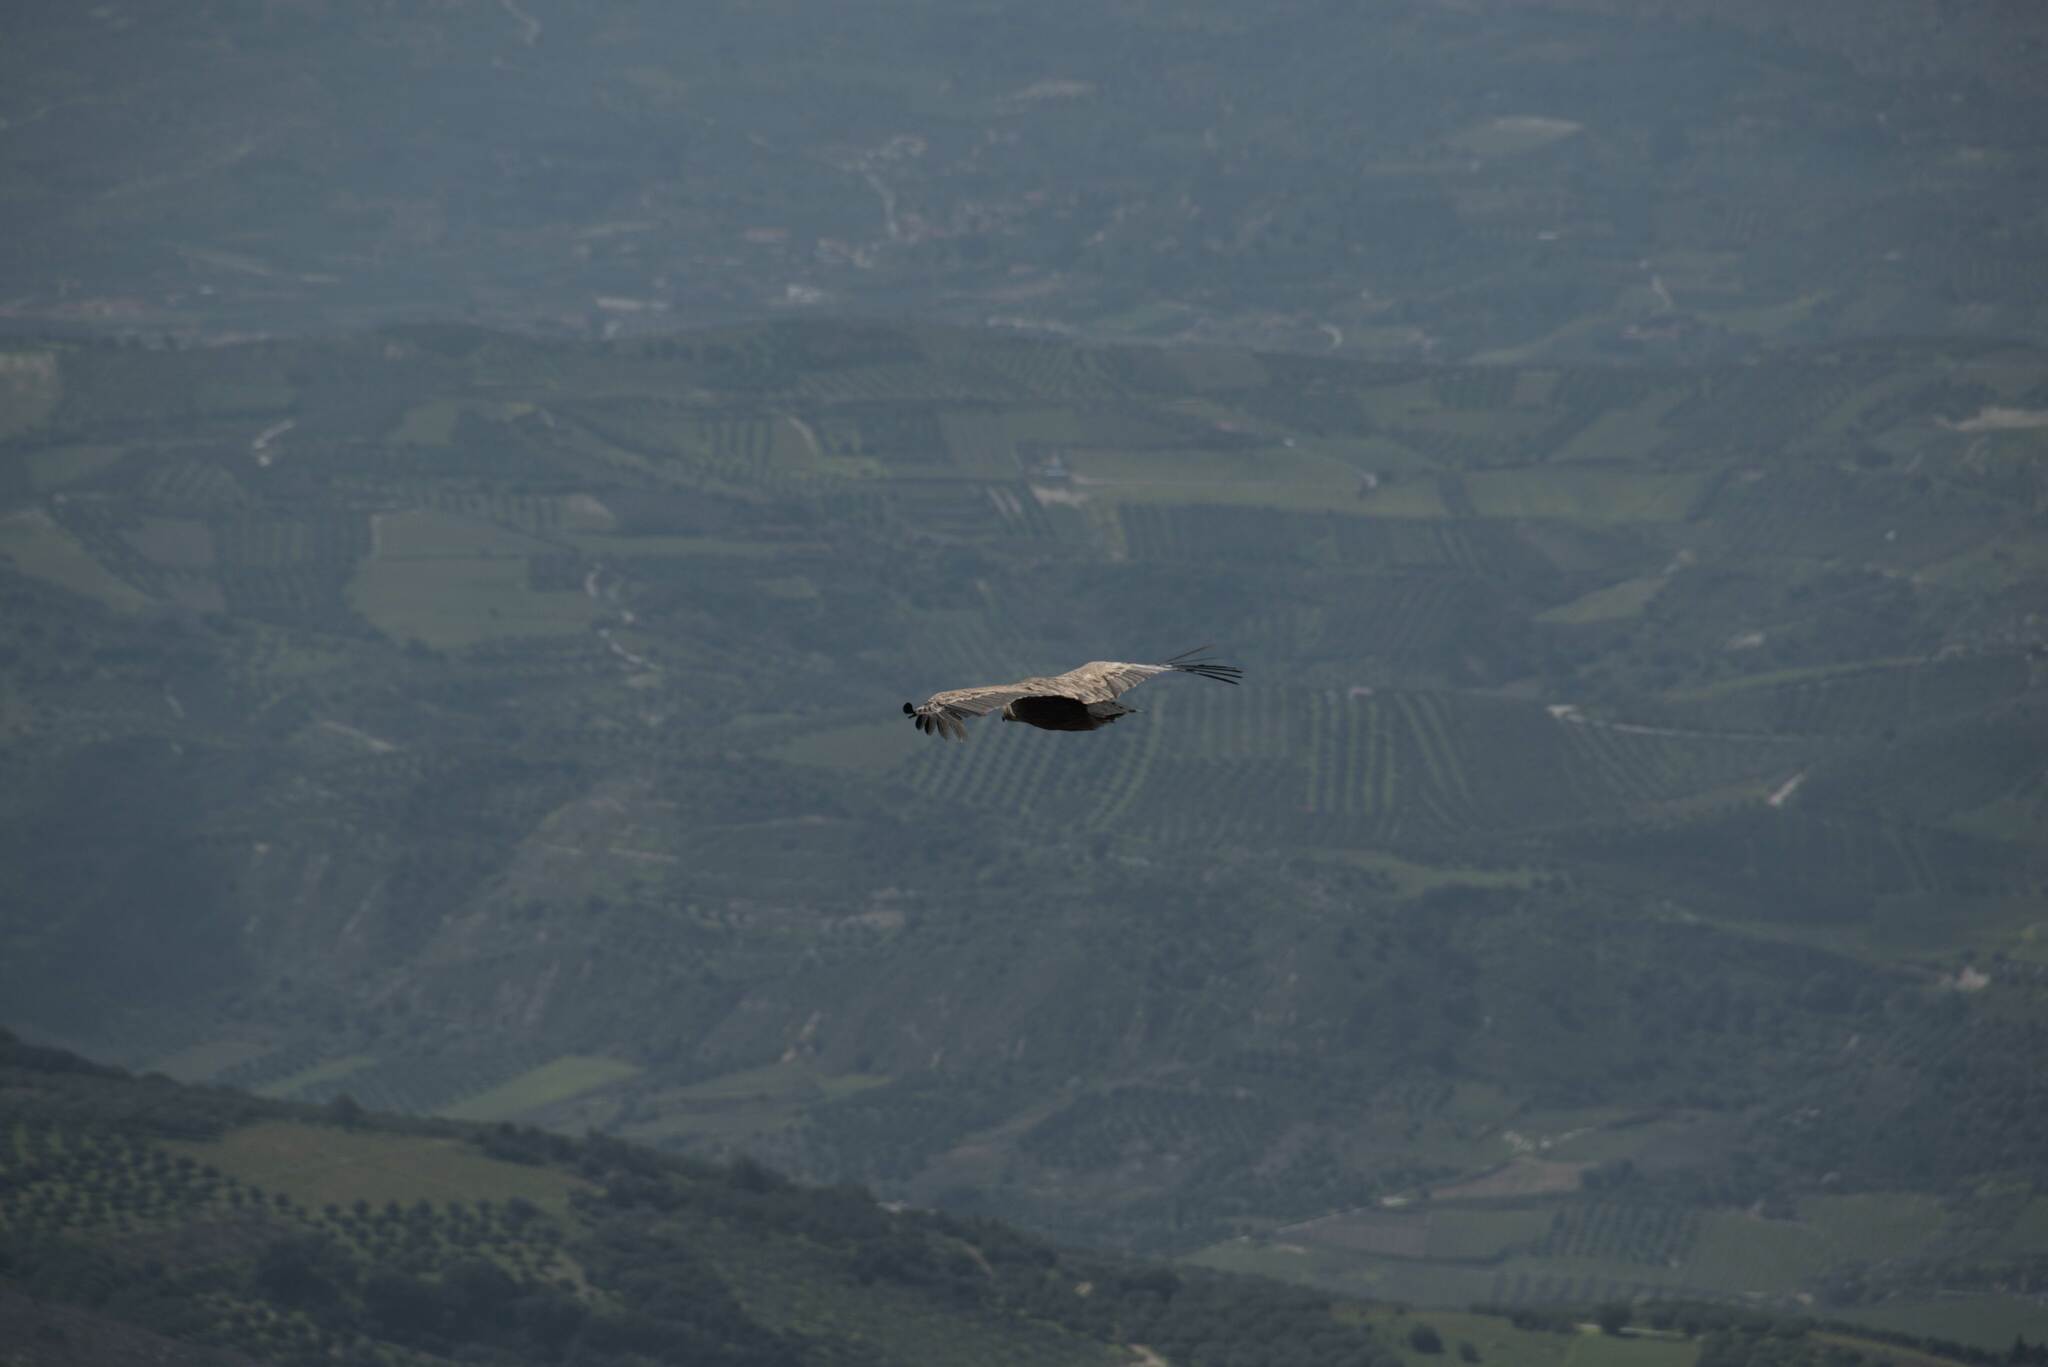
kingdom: Animalia
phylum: Chordata
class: Aves
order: Accipitriformes
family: Accipitridae
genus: Gyps
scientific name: Gyps fulvus
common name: Griffon vulture
